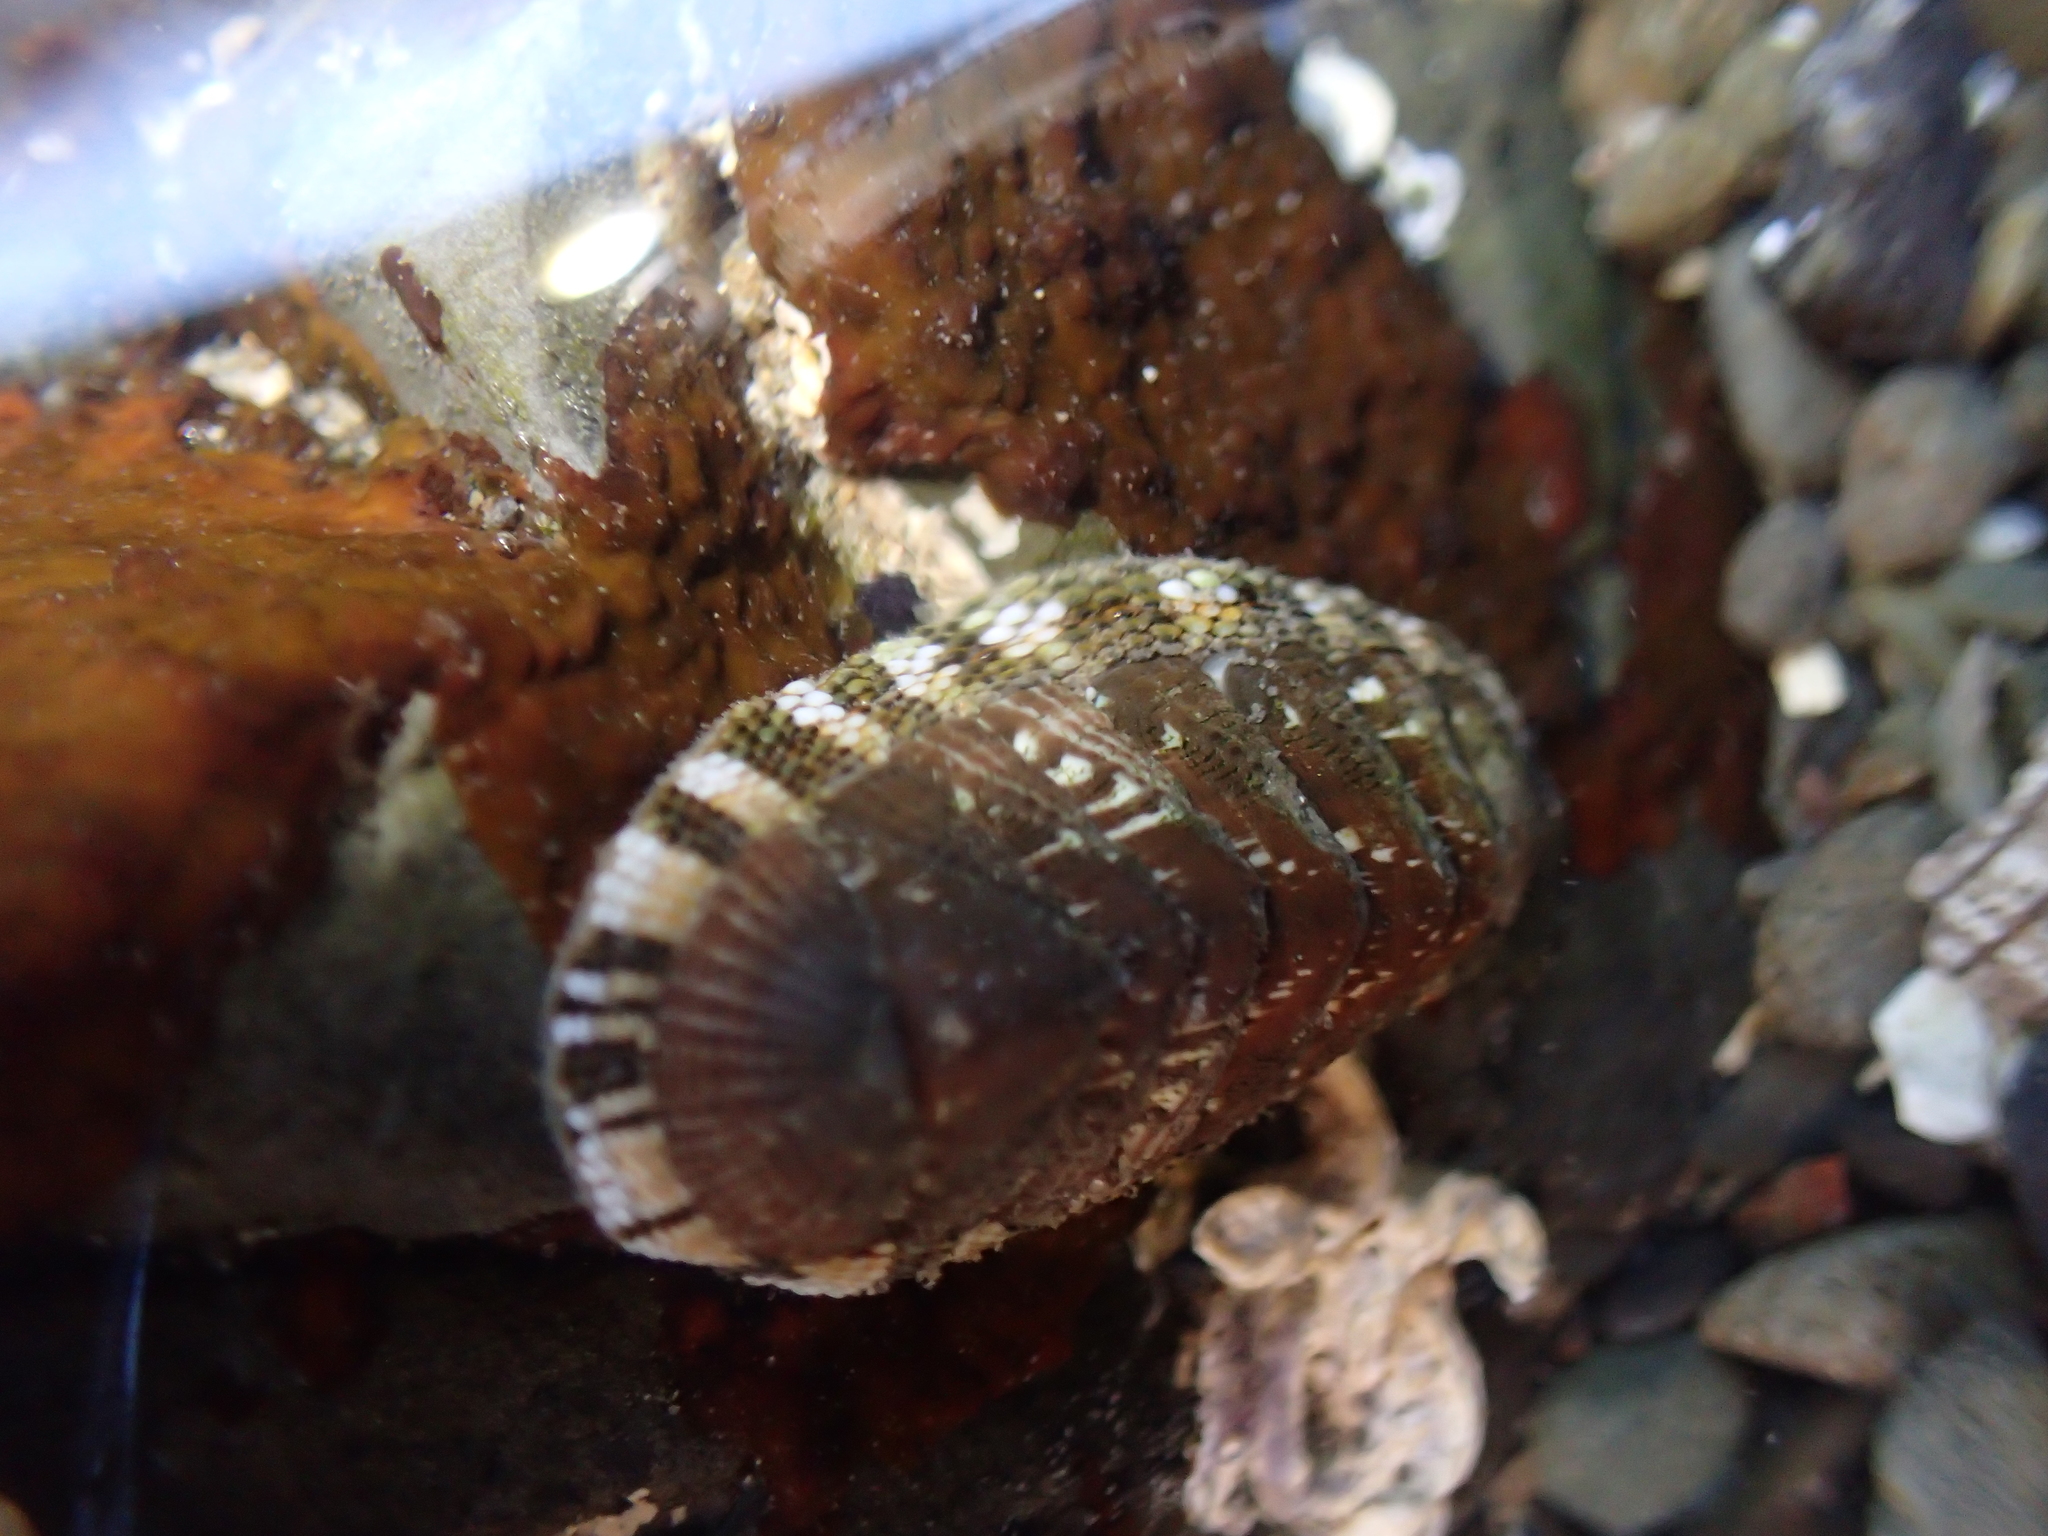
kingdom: Animalia
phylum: Mollusca
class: Polyplacophora
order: Chitonida
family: Chitonidae
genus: Sypharochiton
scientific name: Sypharochiton sinclairi
